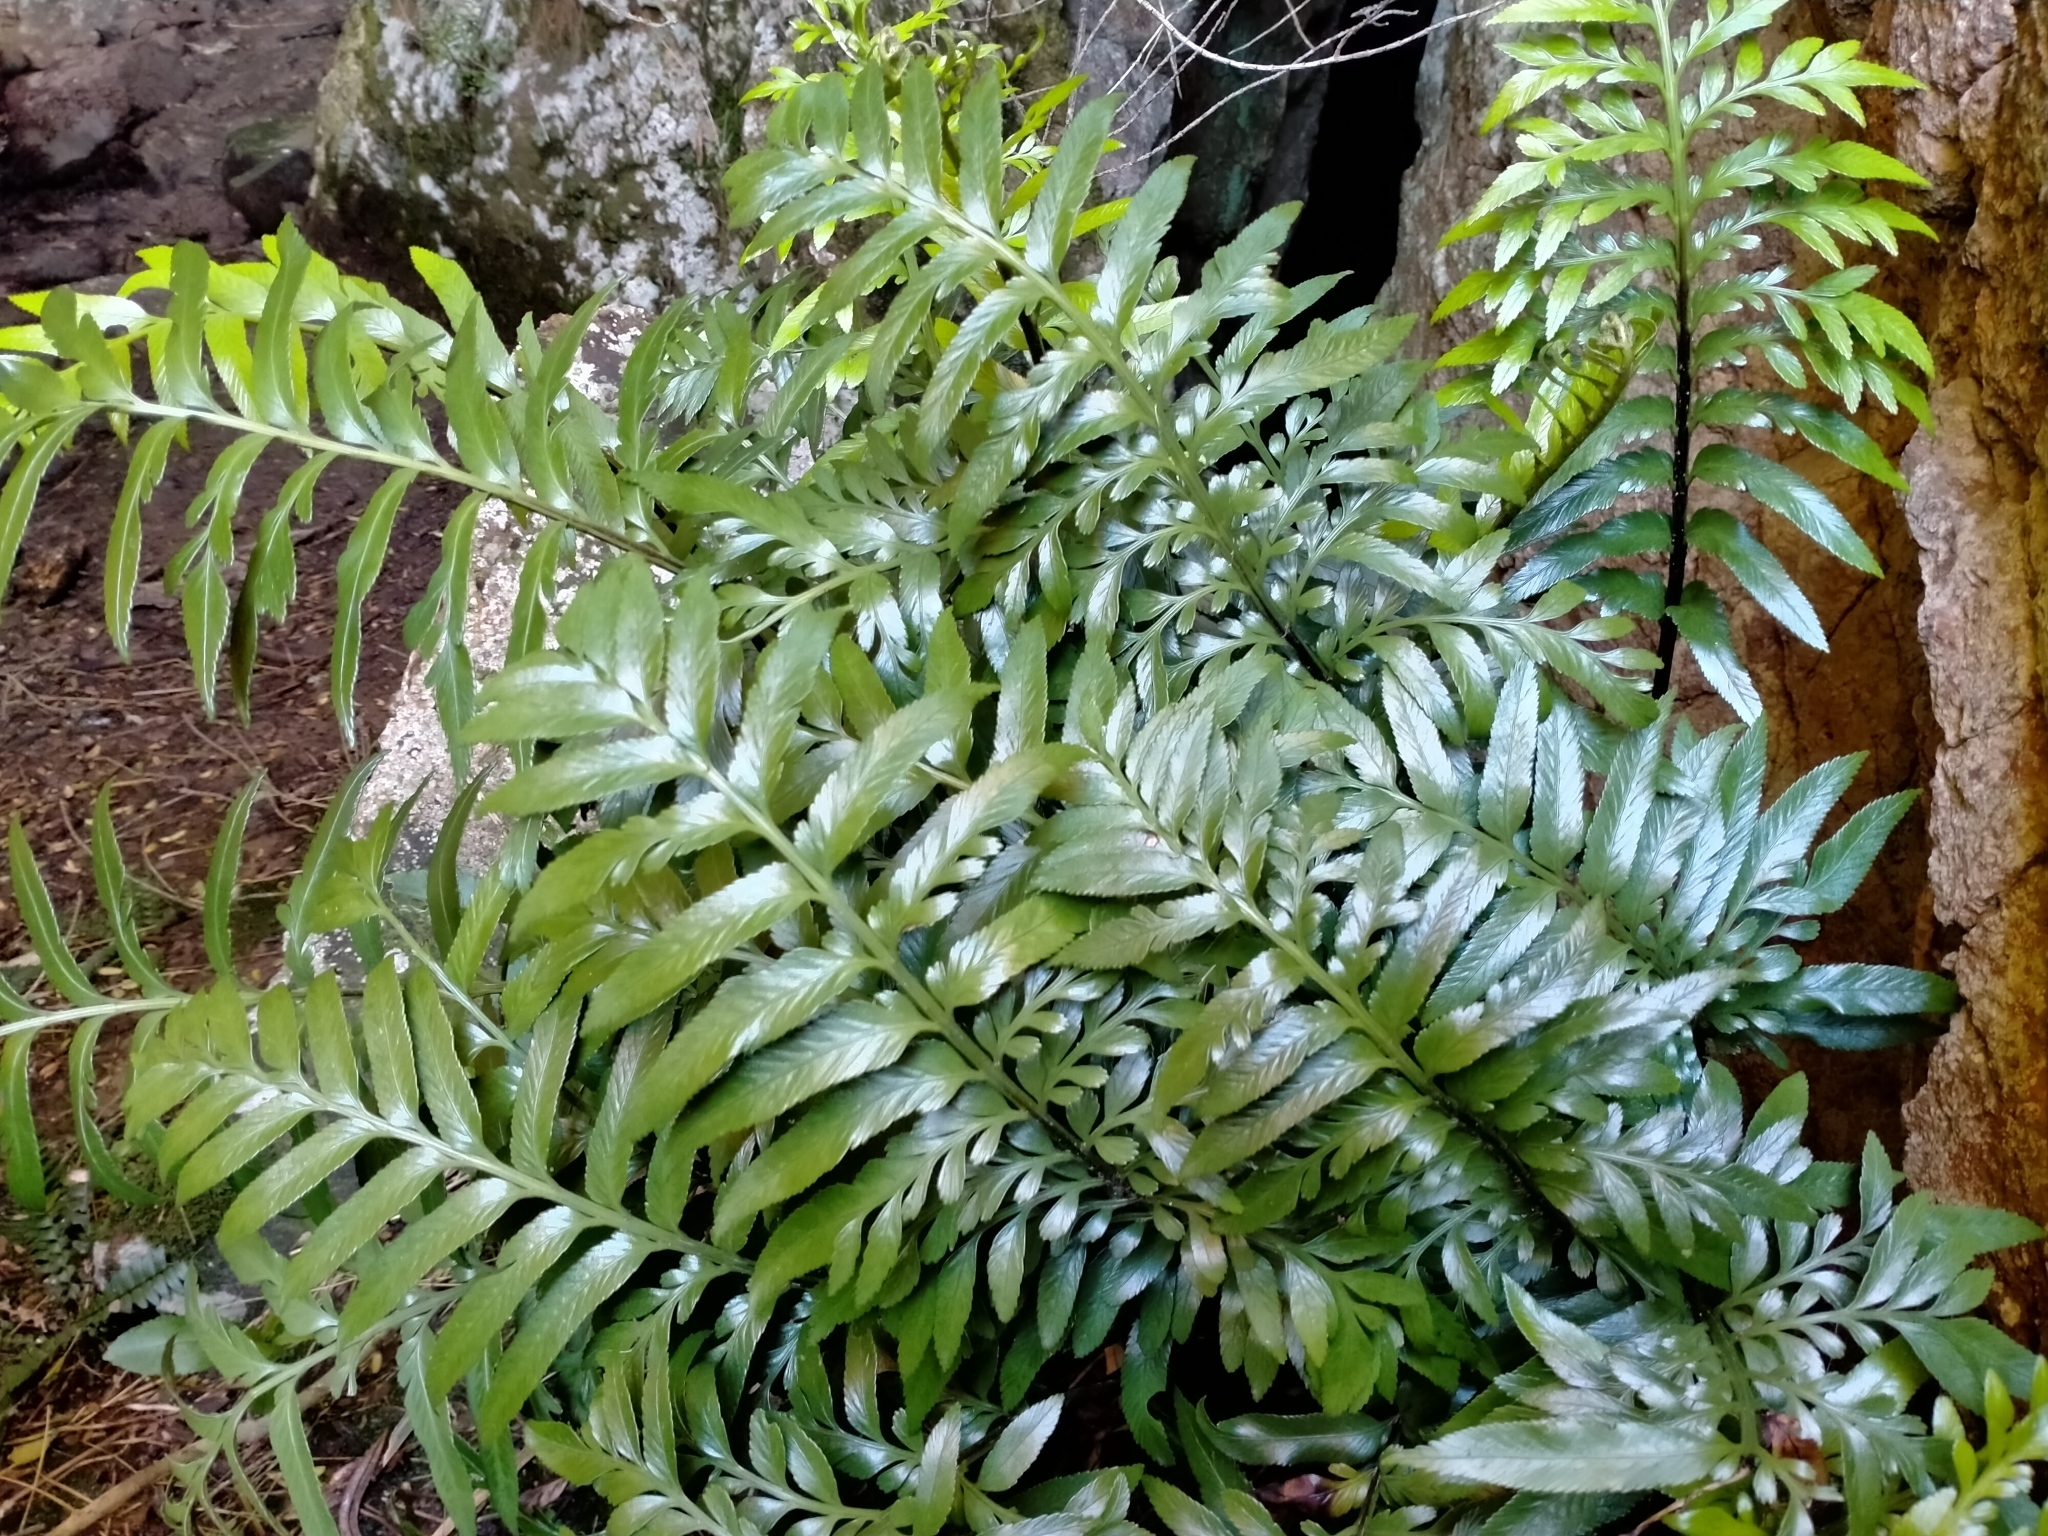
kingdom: Plantae
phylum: Tracheophyta
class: Polypodiopsida
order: Polypodiales
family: Aspleniaceae
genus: Asplenium
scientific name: Asplenium lyallii
